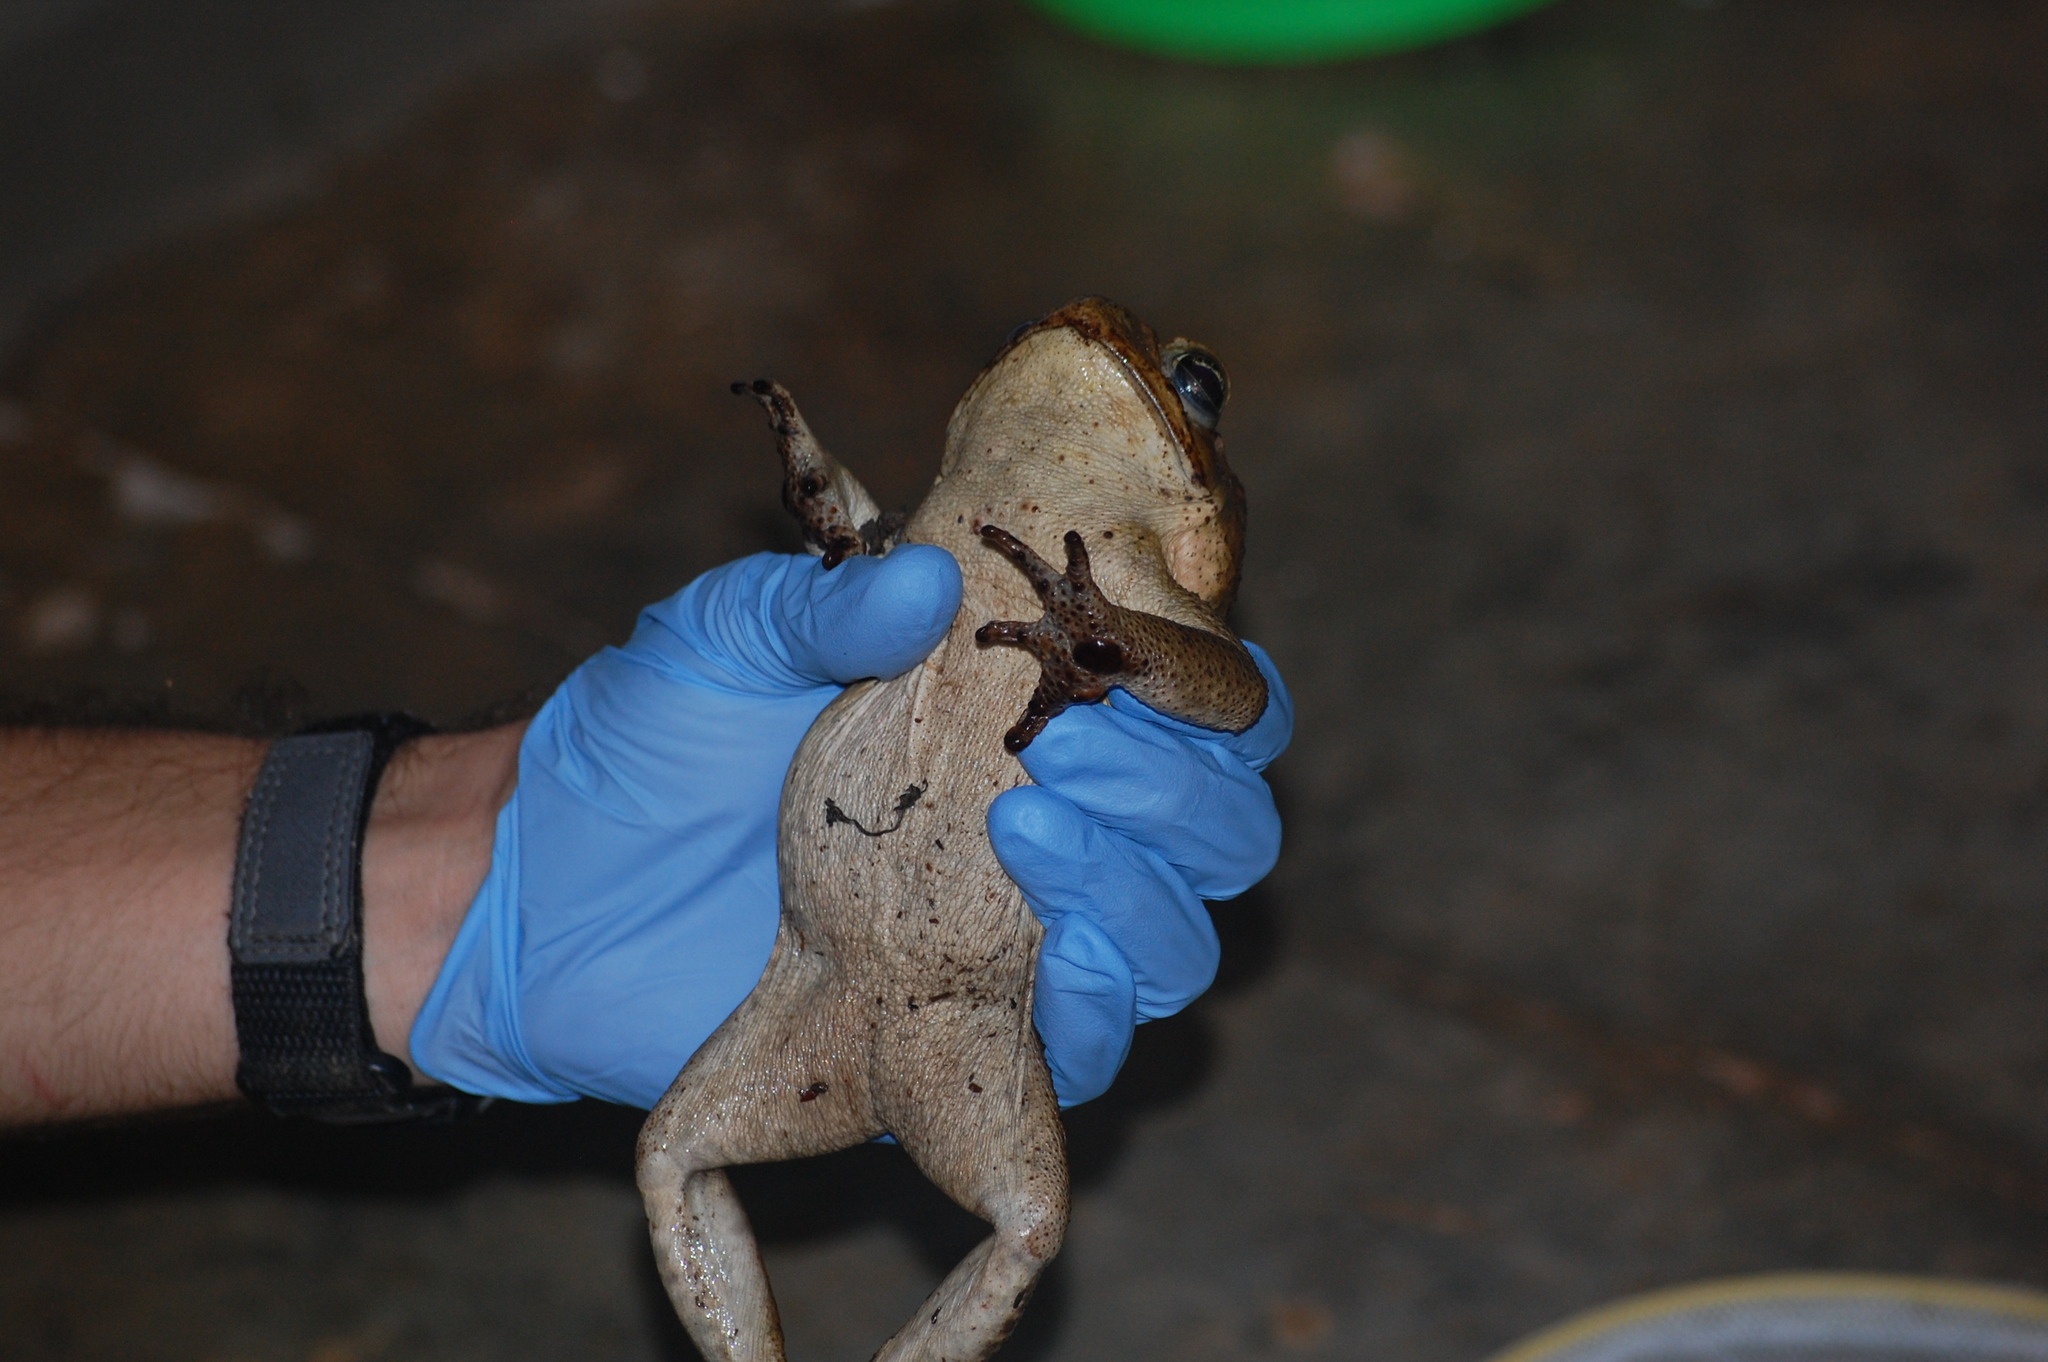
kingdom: Animalia
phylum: Chordata
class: Amphibia
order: Anura
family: Bufonidae
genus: Rhinella
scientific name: Rhinella horribilis
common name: Mesoamerican cane toad
